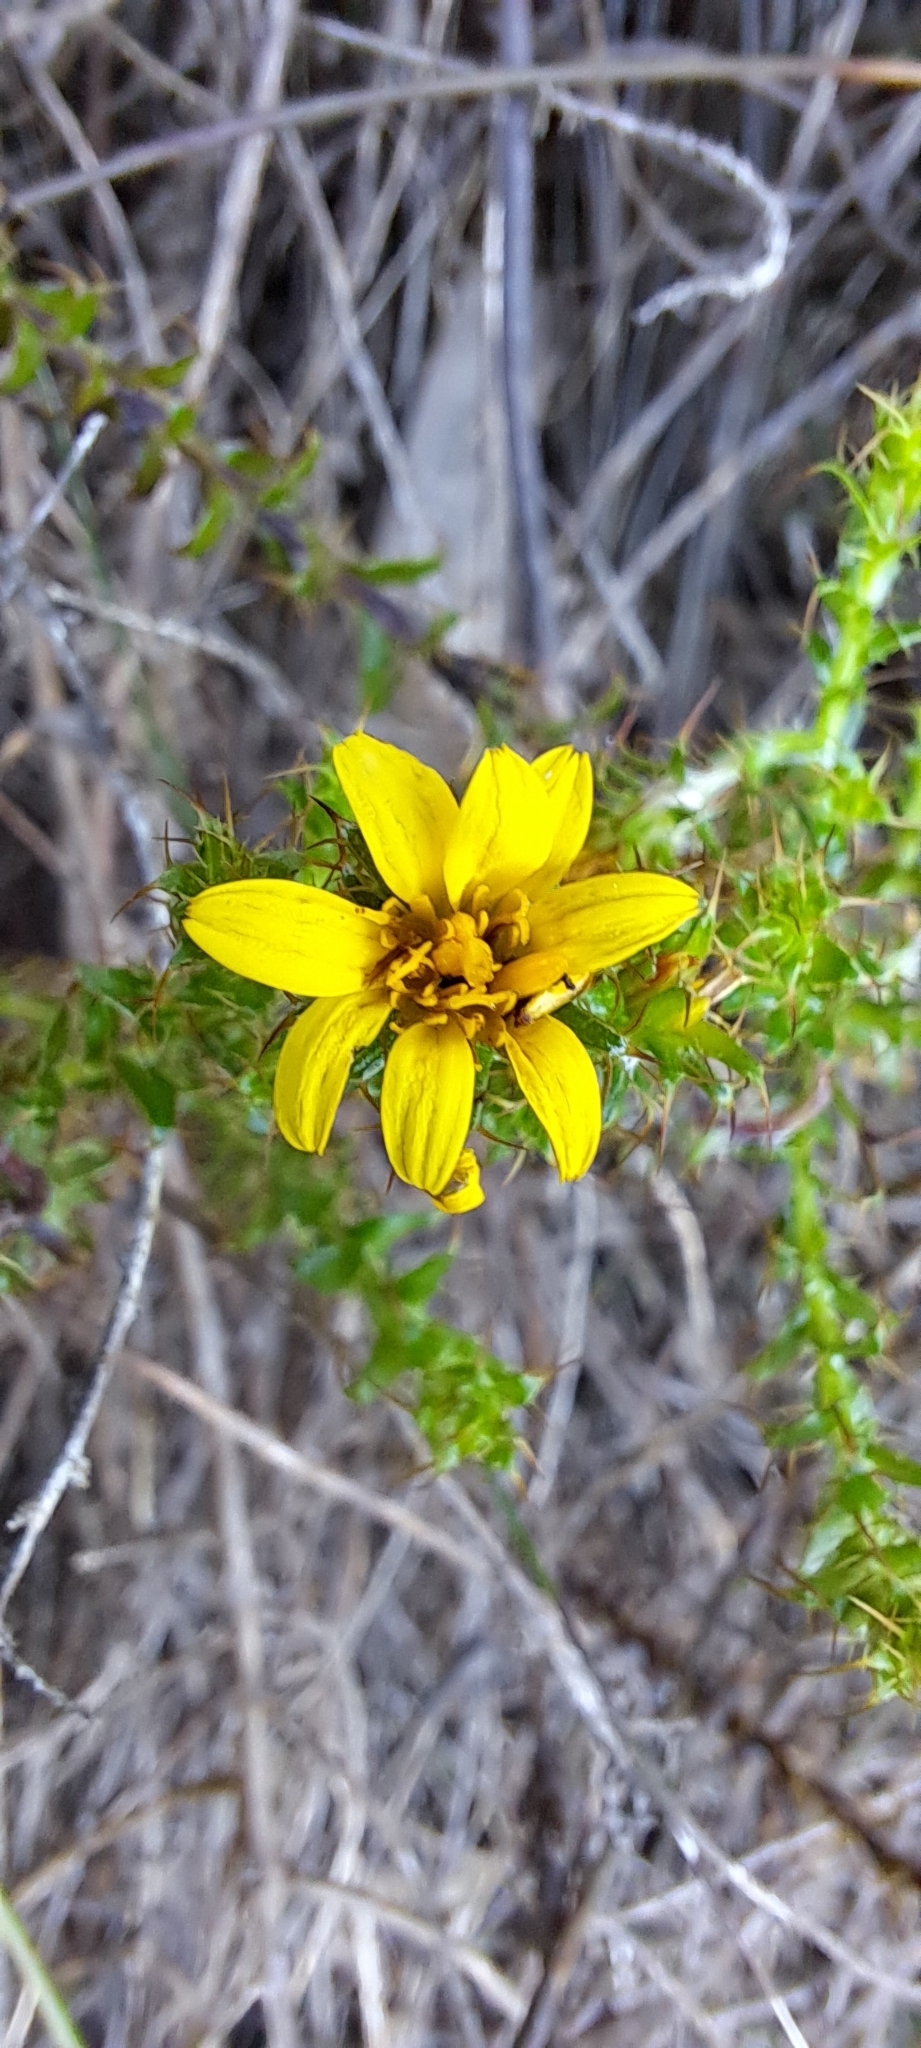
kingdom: Plantae
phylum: Tracheophyta
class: Magnoliopsida
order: Asterales
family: Asteraceae
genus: Cullumia
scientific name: Cullumia setosa
